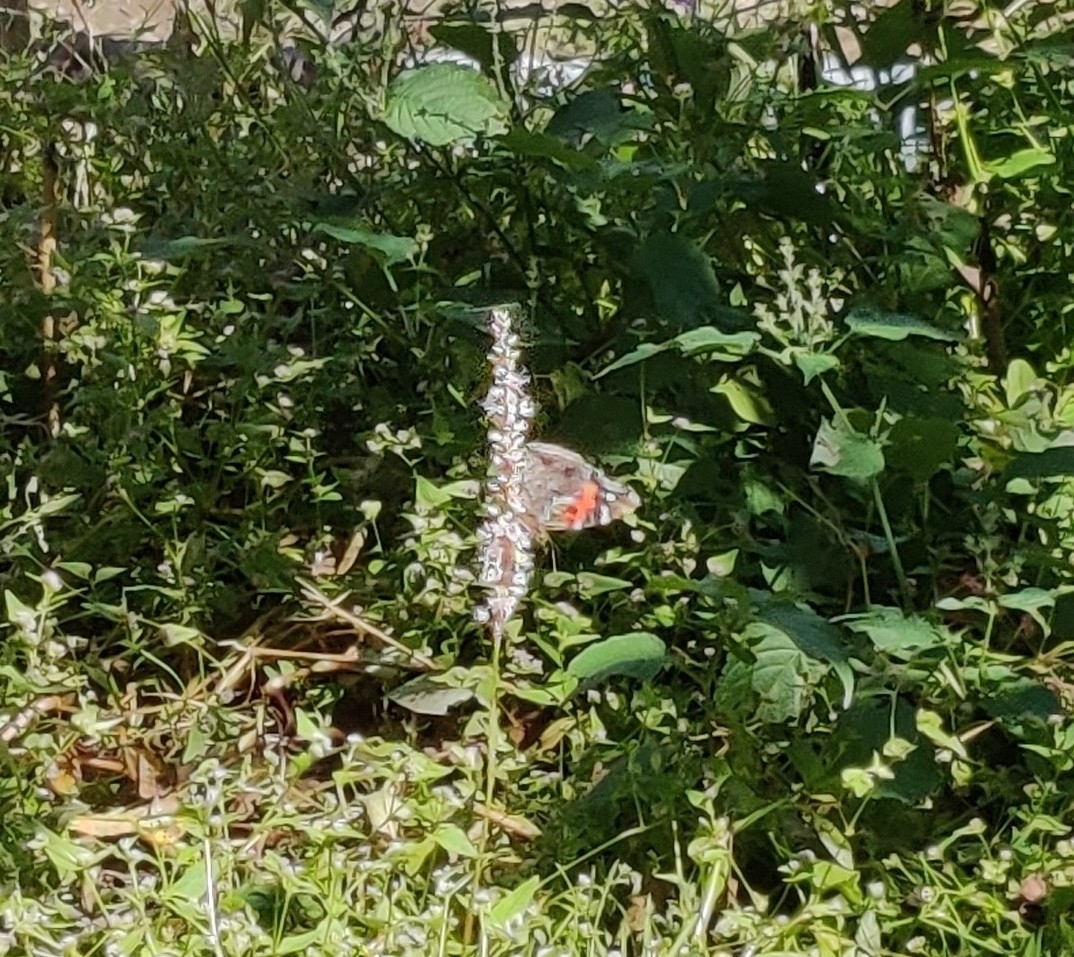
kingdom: Animalia
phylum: Arthropoda
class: Insecta
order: Lepidoptera
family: Nymphalidae
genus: Vanessa
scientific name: Vanessa indica
